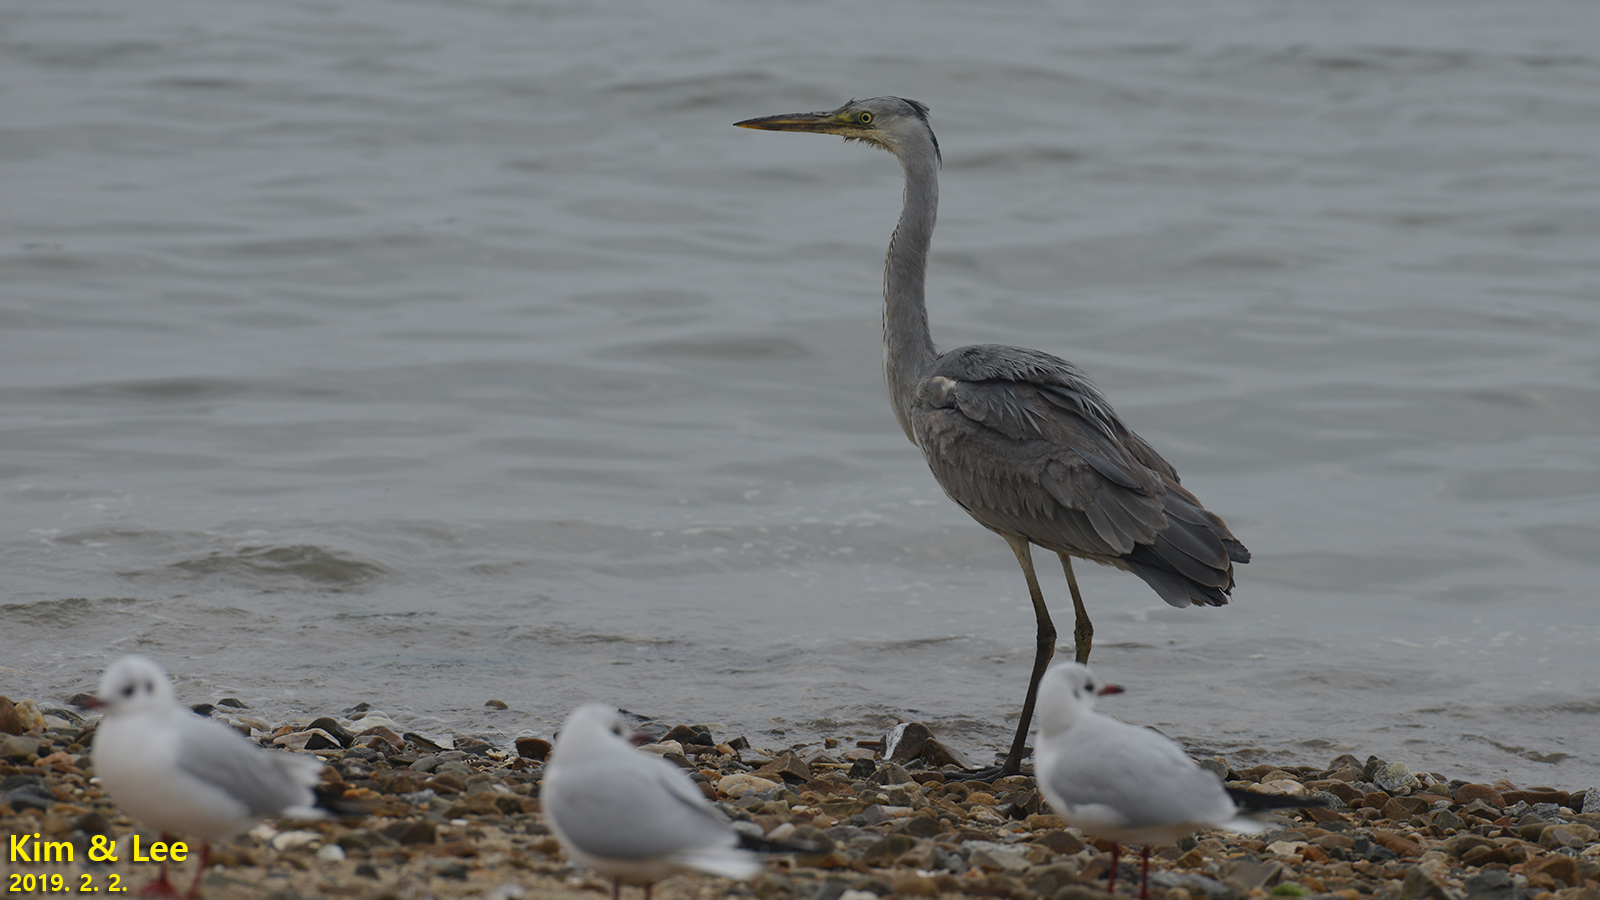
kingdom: Animalia
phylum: Chordata
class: Aves
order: Pelecaniformes
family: Ardeidae
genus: Ardea
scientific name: Ardea cinerea
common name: Grey heron
